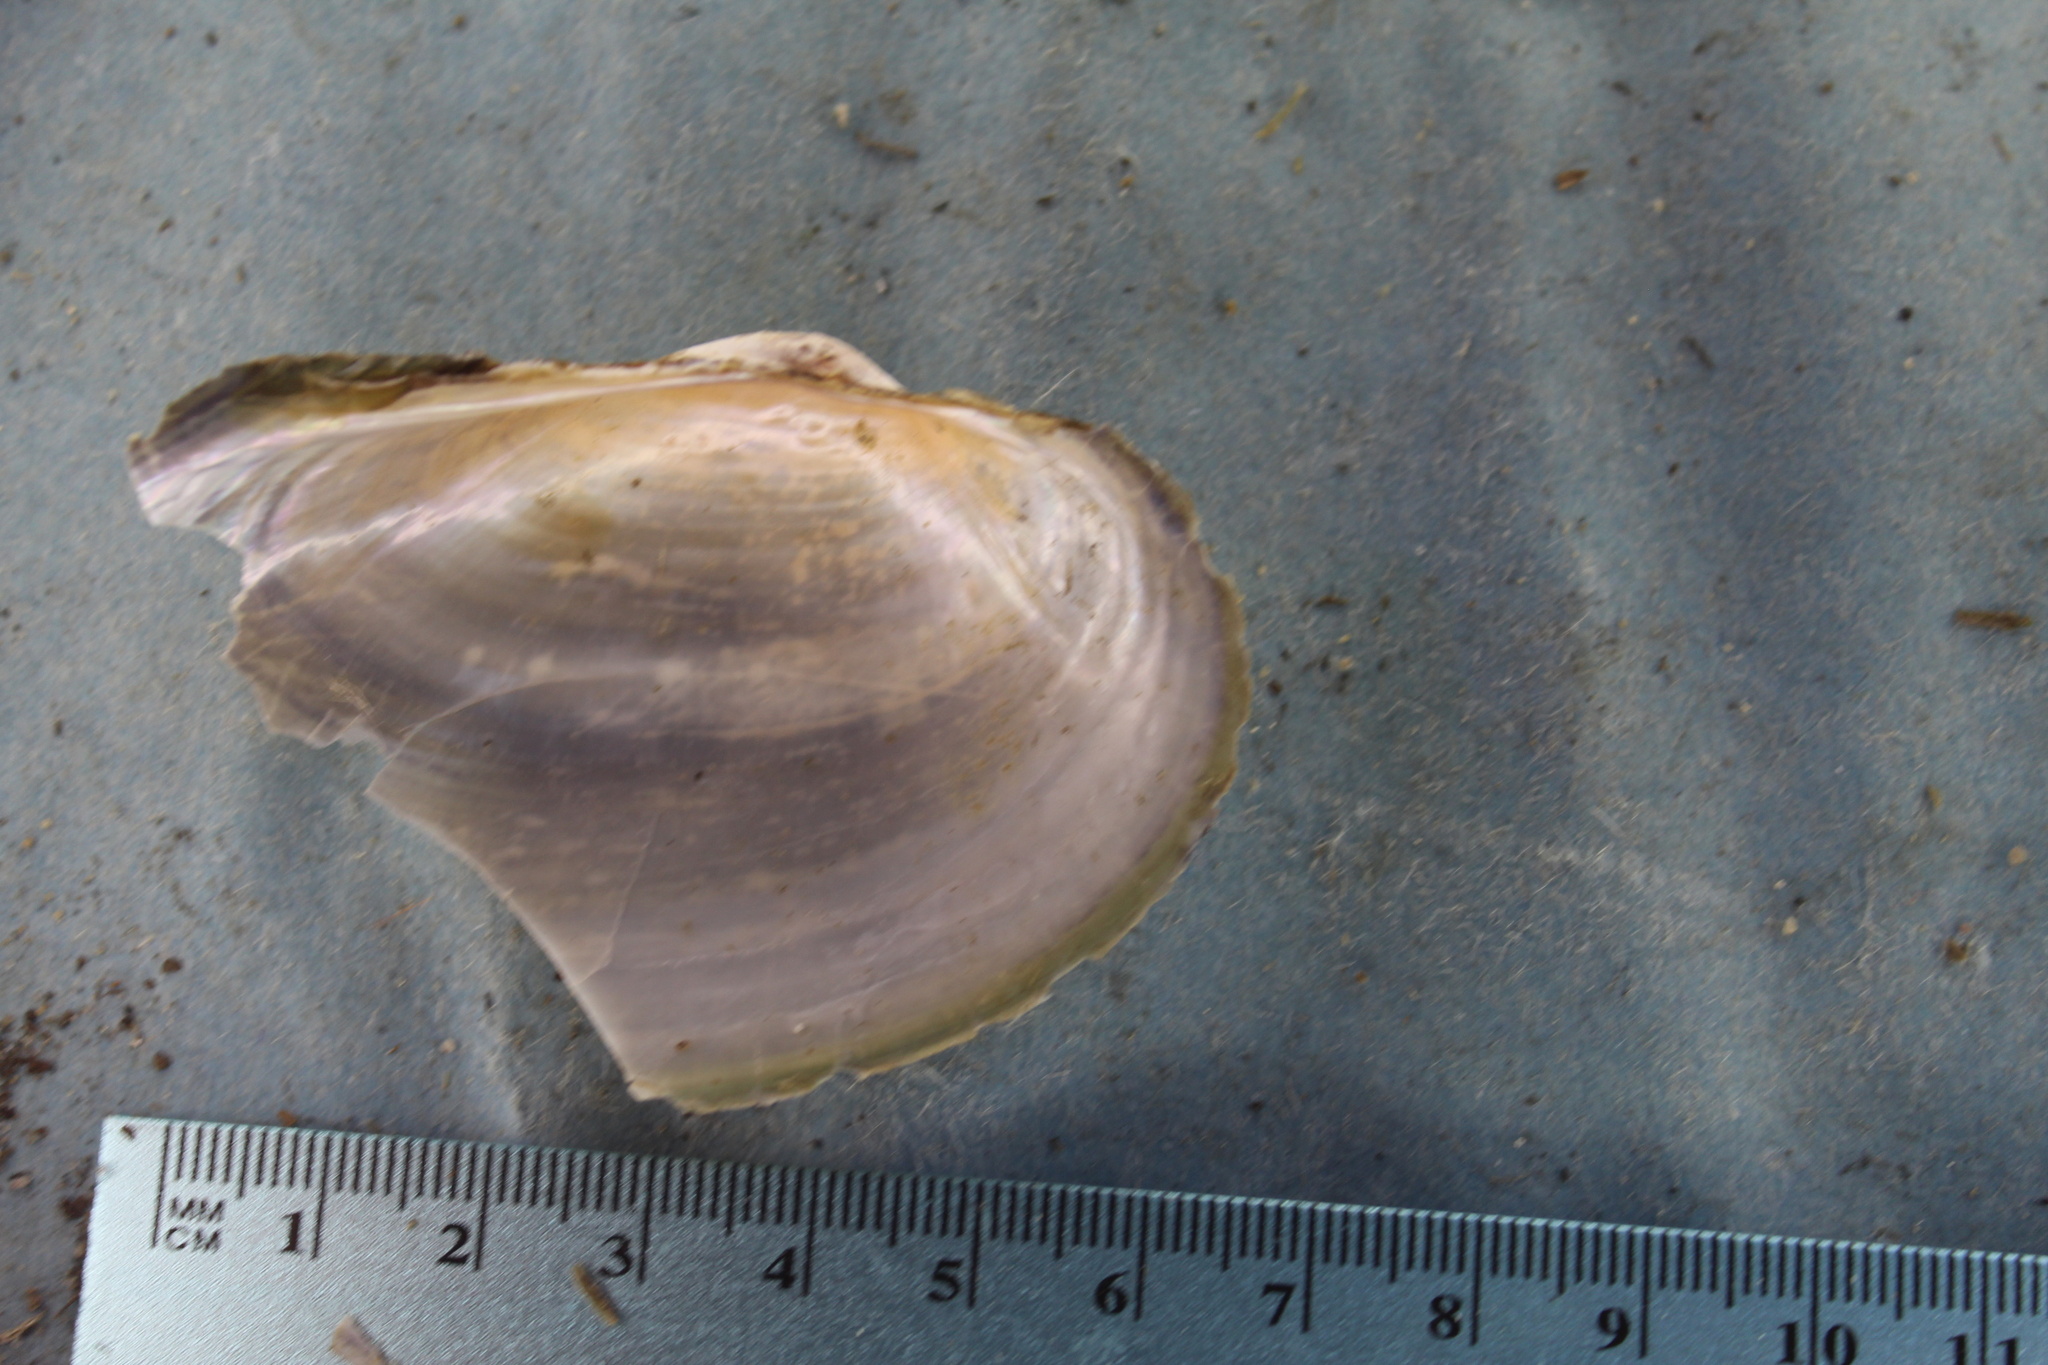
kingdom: Animalia
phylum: Mollusca
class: Bivalvia
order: Unionida
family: Unionidae
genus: Pyganodon
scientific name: Pyganodon grandis
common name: Giant floater
